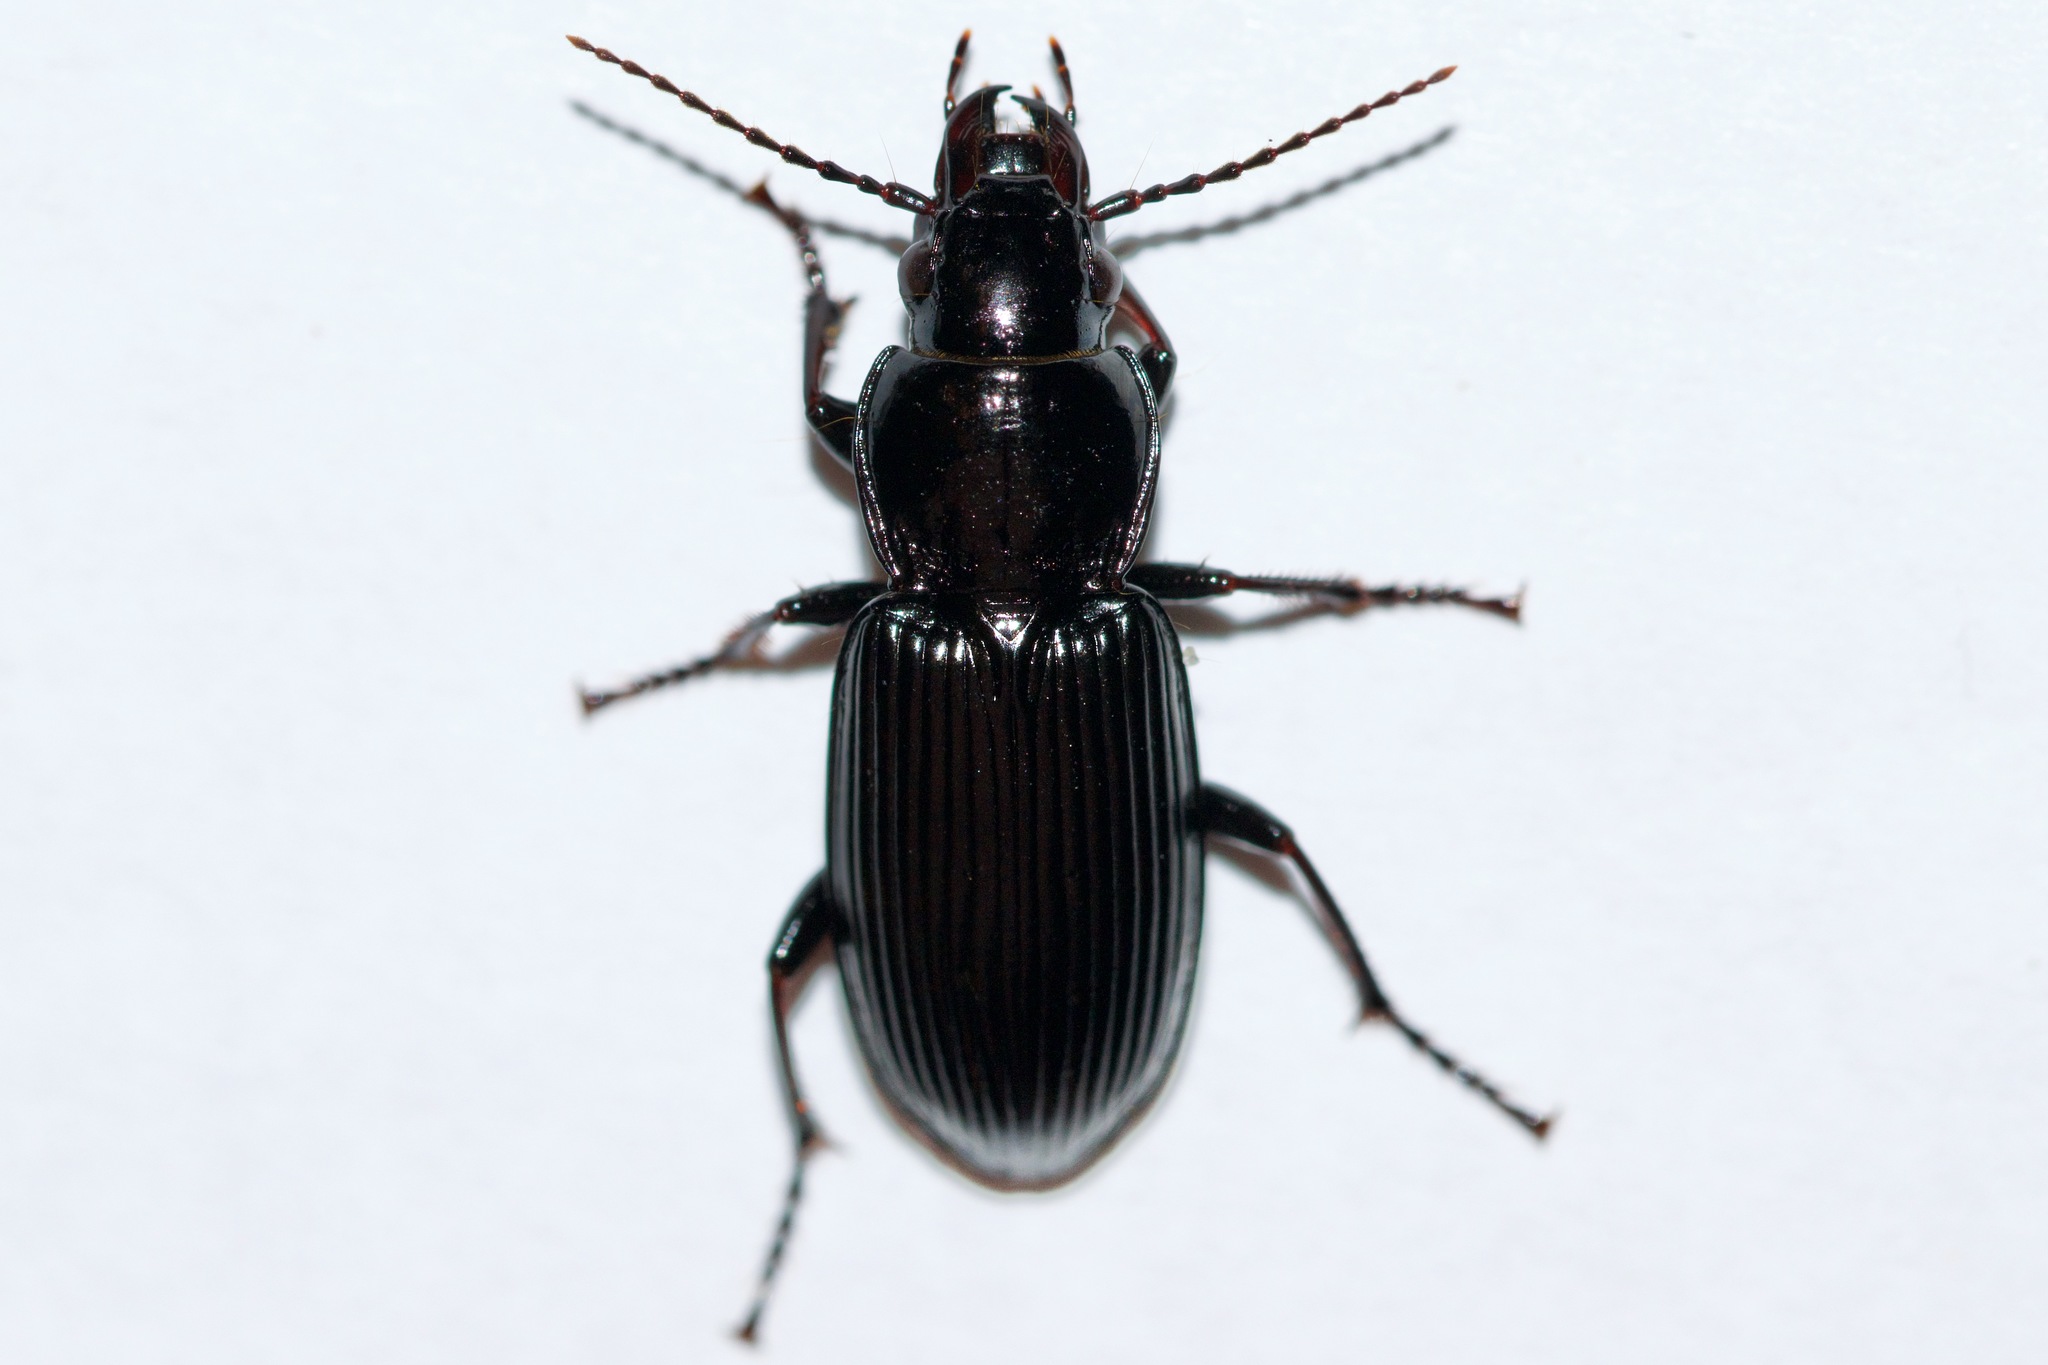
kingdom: Animalia
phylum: Arthropoda
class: Insecta
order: Coleoptera
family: Carabidae
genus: Pterostichus
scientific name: Pterostichus melanarius
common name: European dark harp ground beetle
